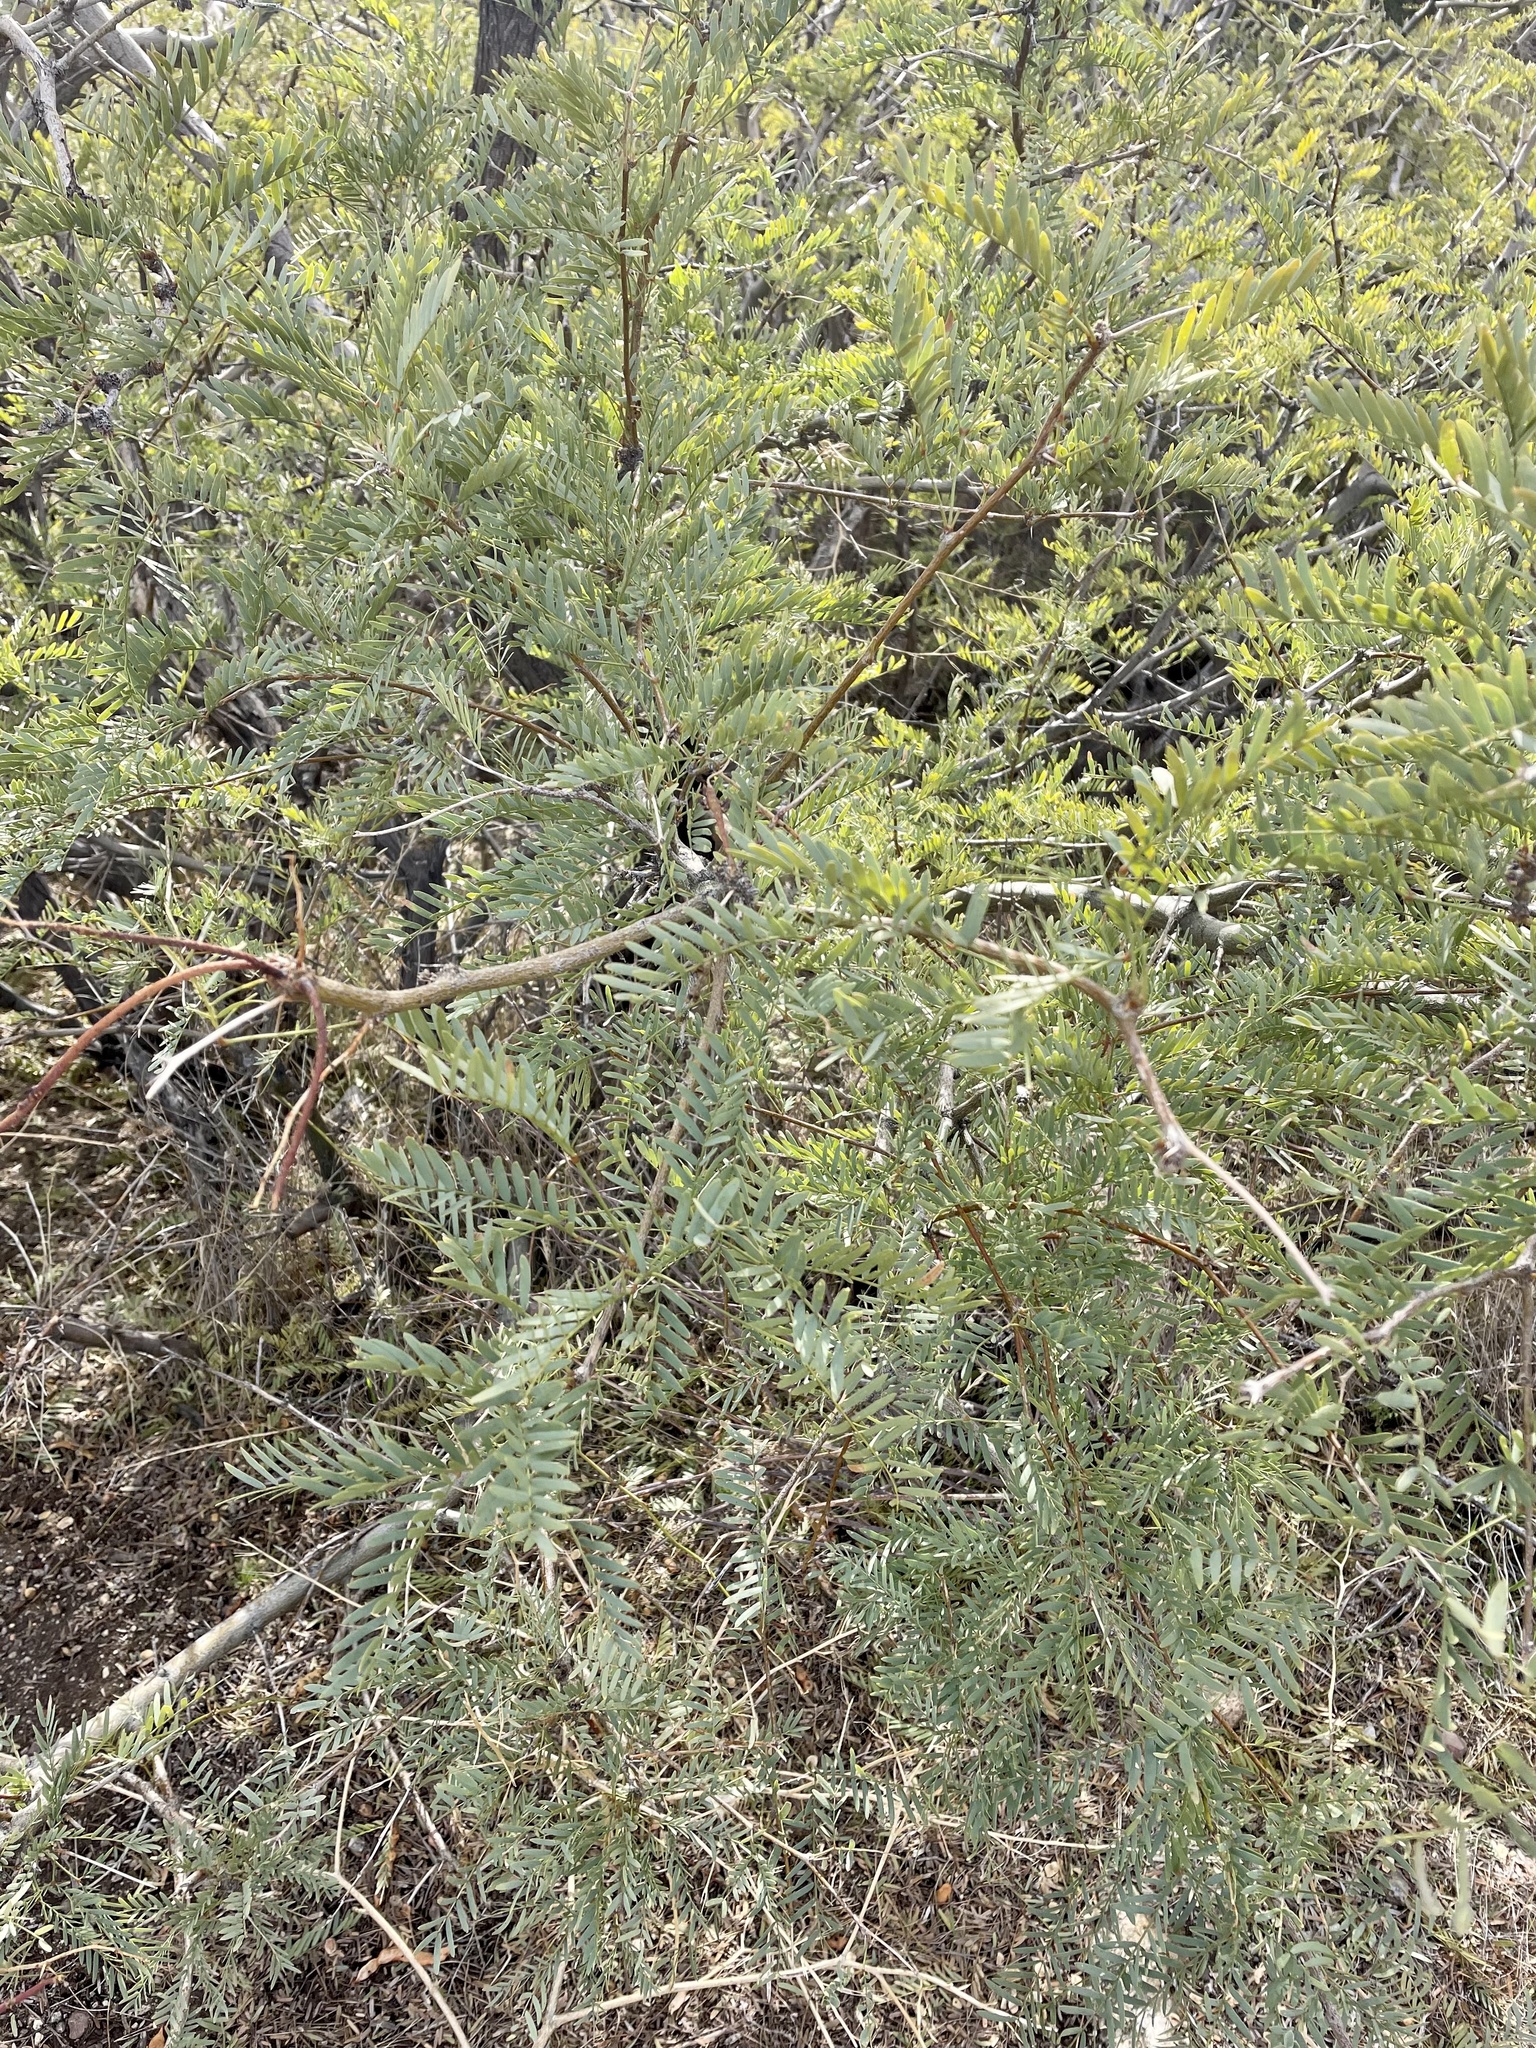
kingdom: Plantae
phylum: Tracheophyta
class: Magnoliopsida
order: Fabales
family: Fabaceae
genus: Prosopis
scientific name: Prosopis pubescens
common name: Screw-bean
